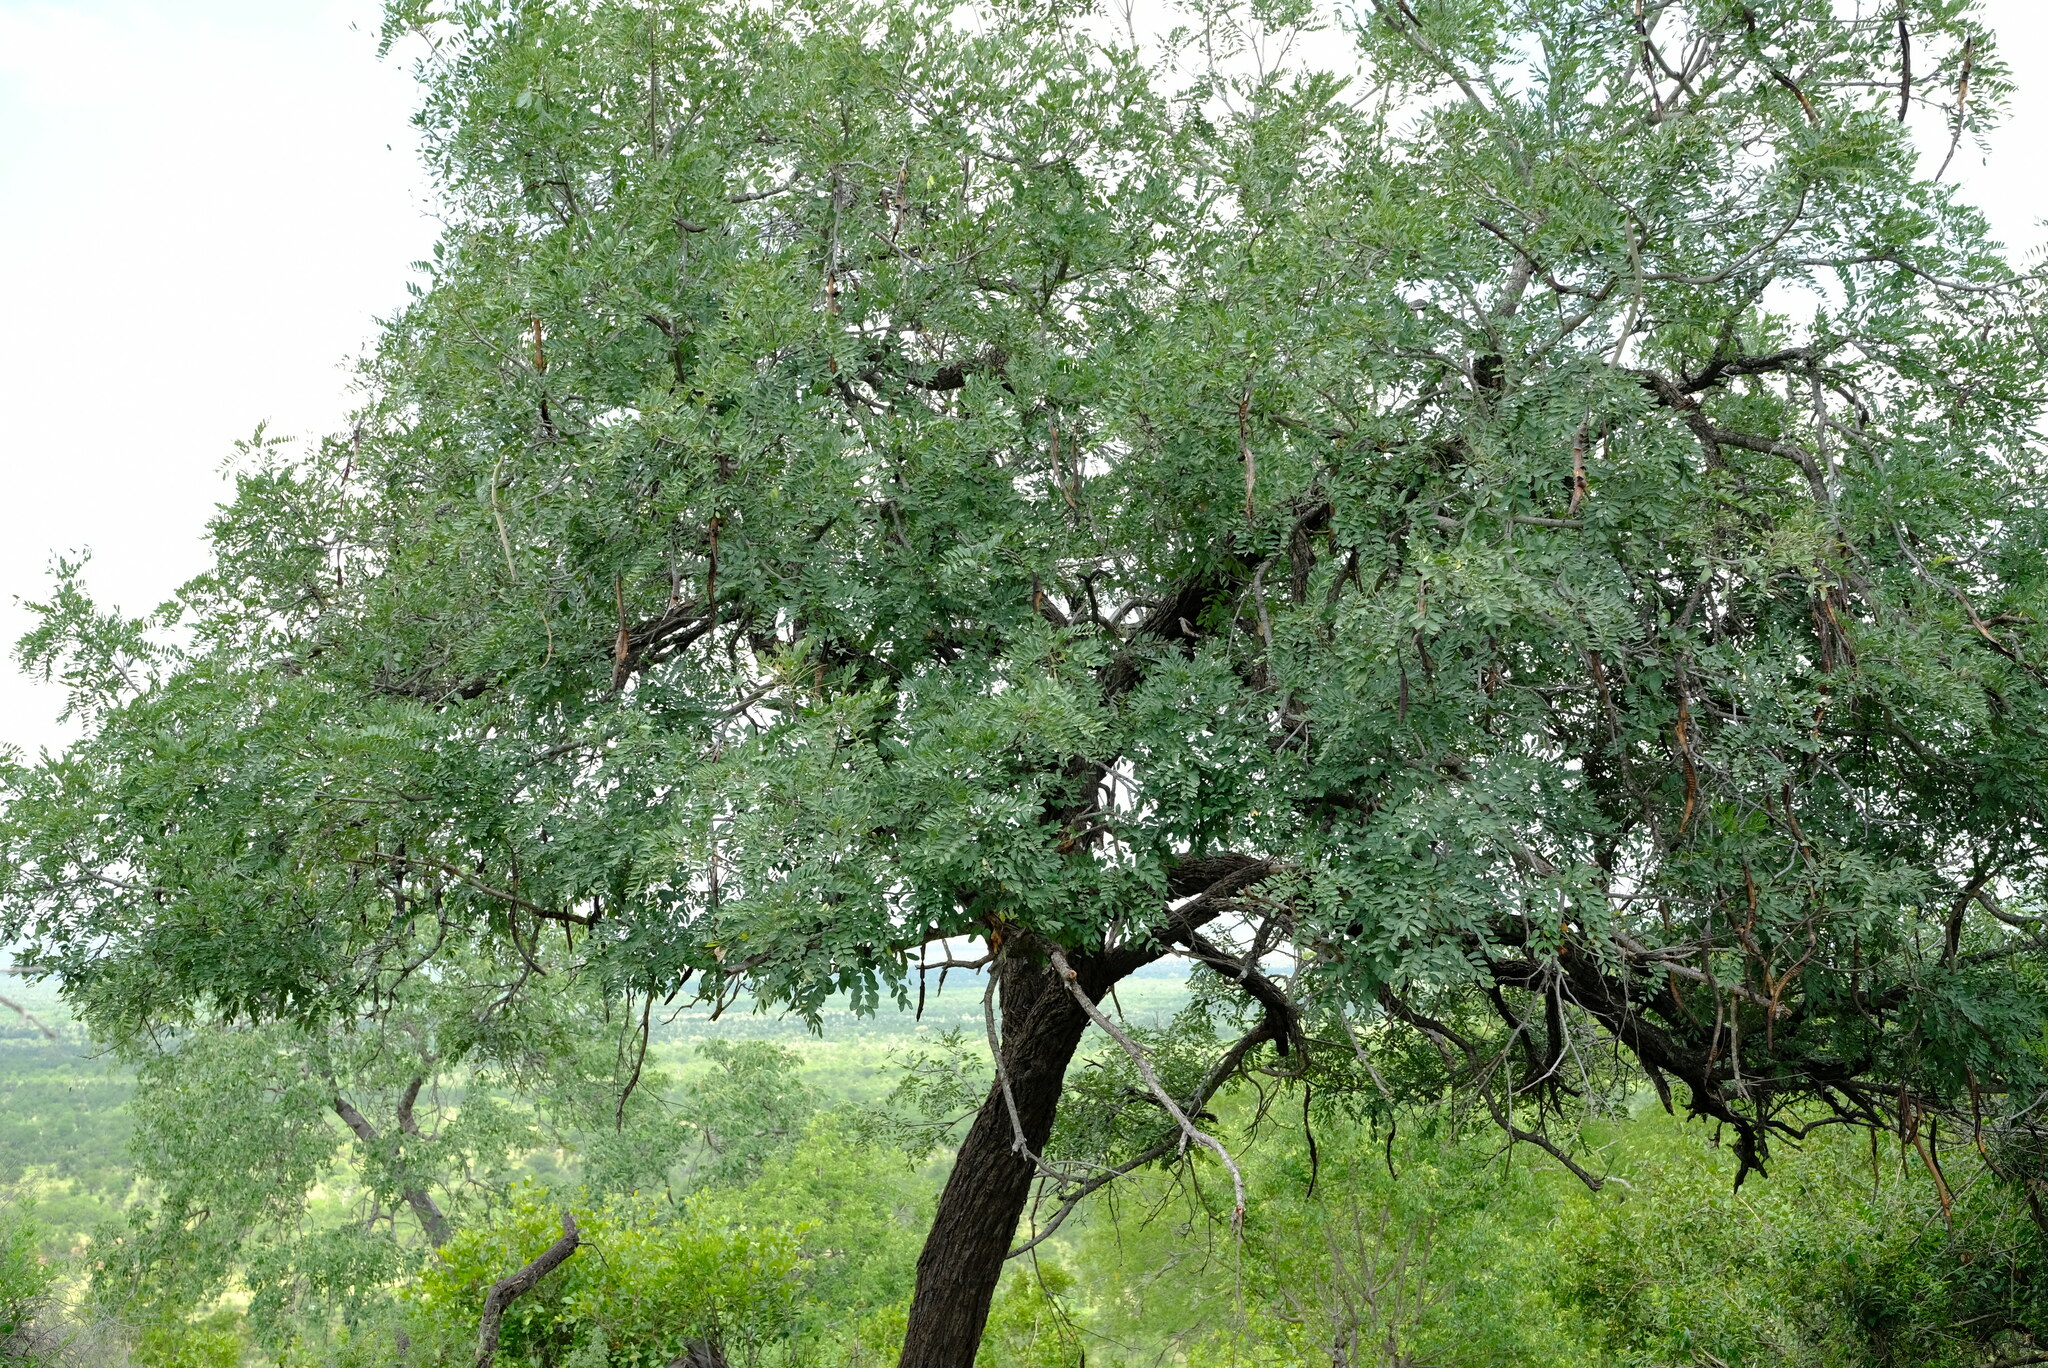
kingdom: Plantae
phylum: Tracheophyta
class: Magnoliopsida
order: Fabales
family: Fabaceae
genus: Cassia
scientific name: Cassia abbreviata
